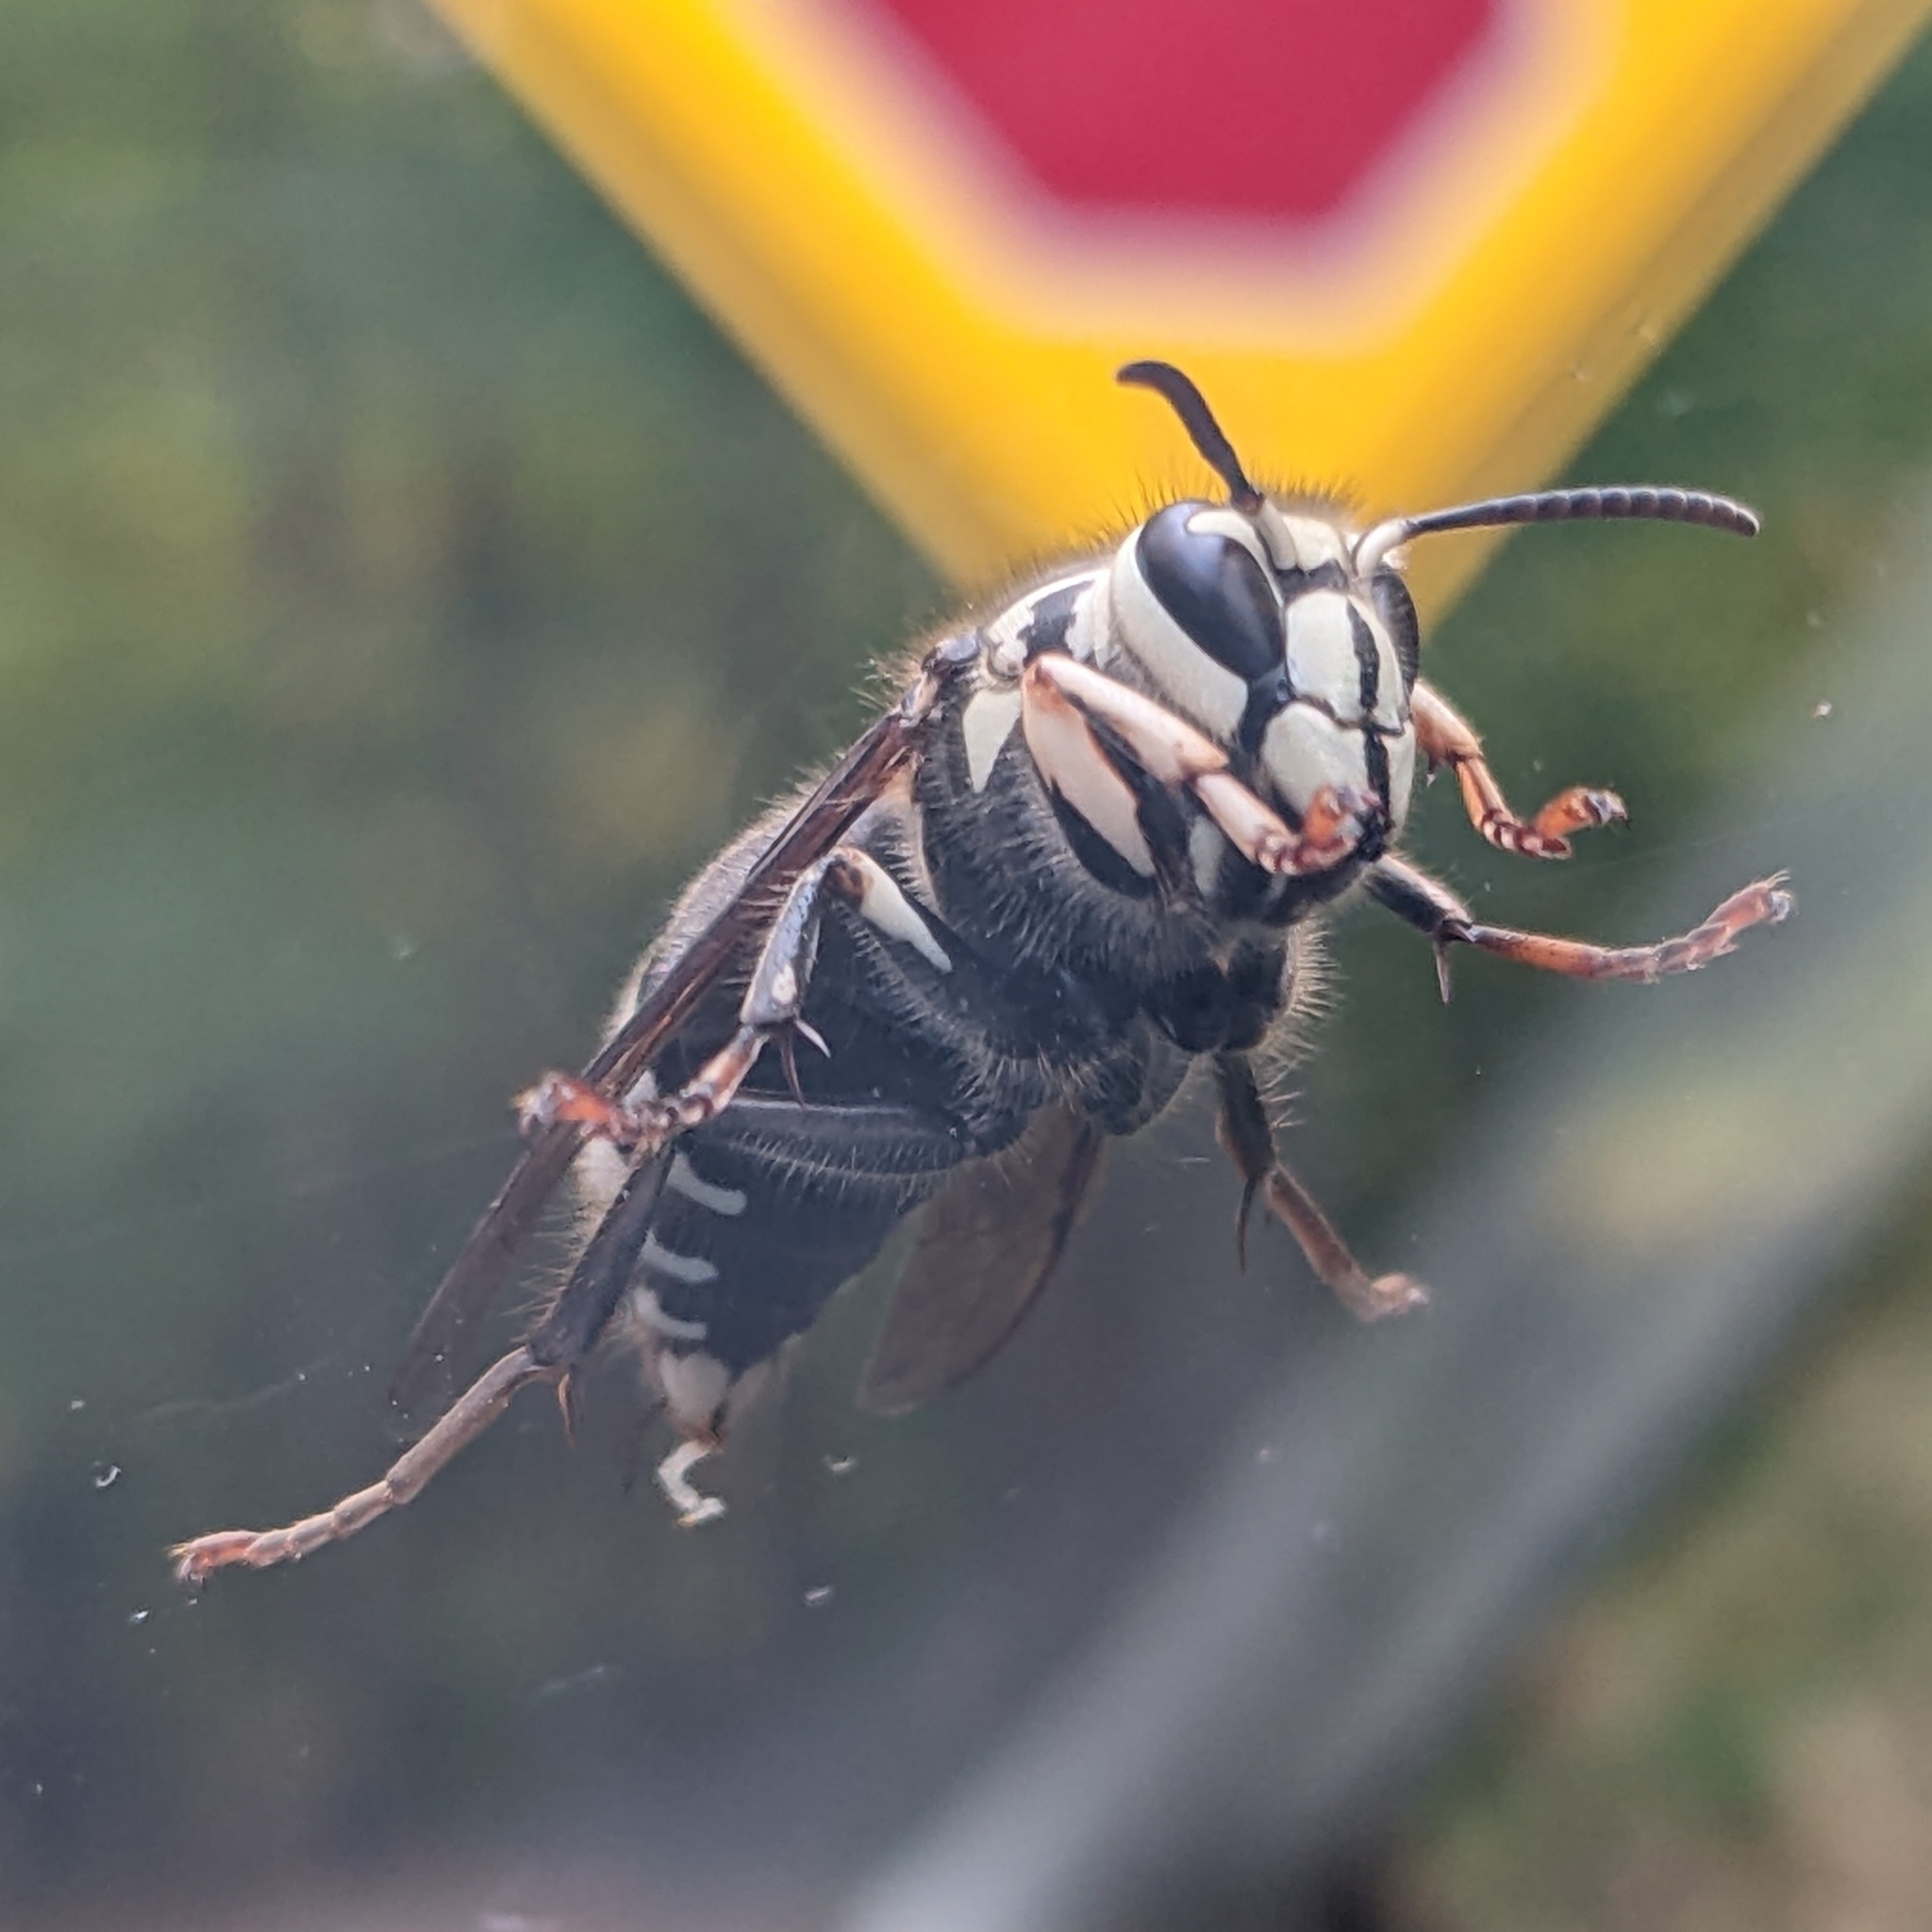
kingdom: Animalia
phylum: Arthropoda
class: Insecta
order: Hymenoptera
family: Vespidae
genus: Dolichovespula
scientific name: Dolichovespula maculata
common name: Bald-faced hornet
